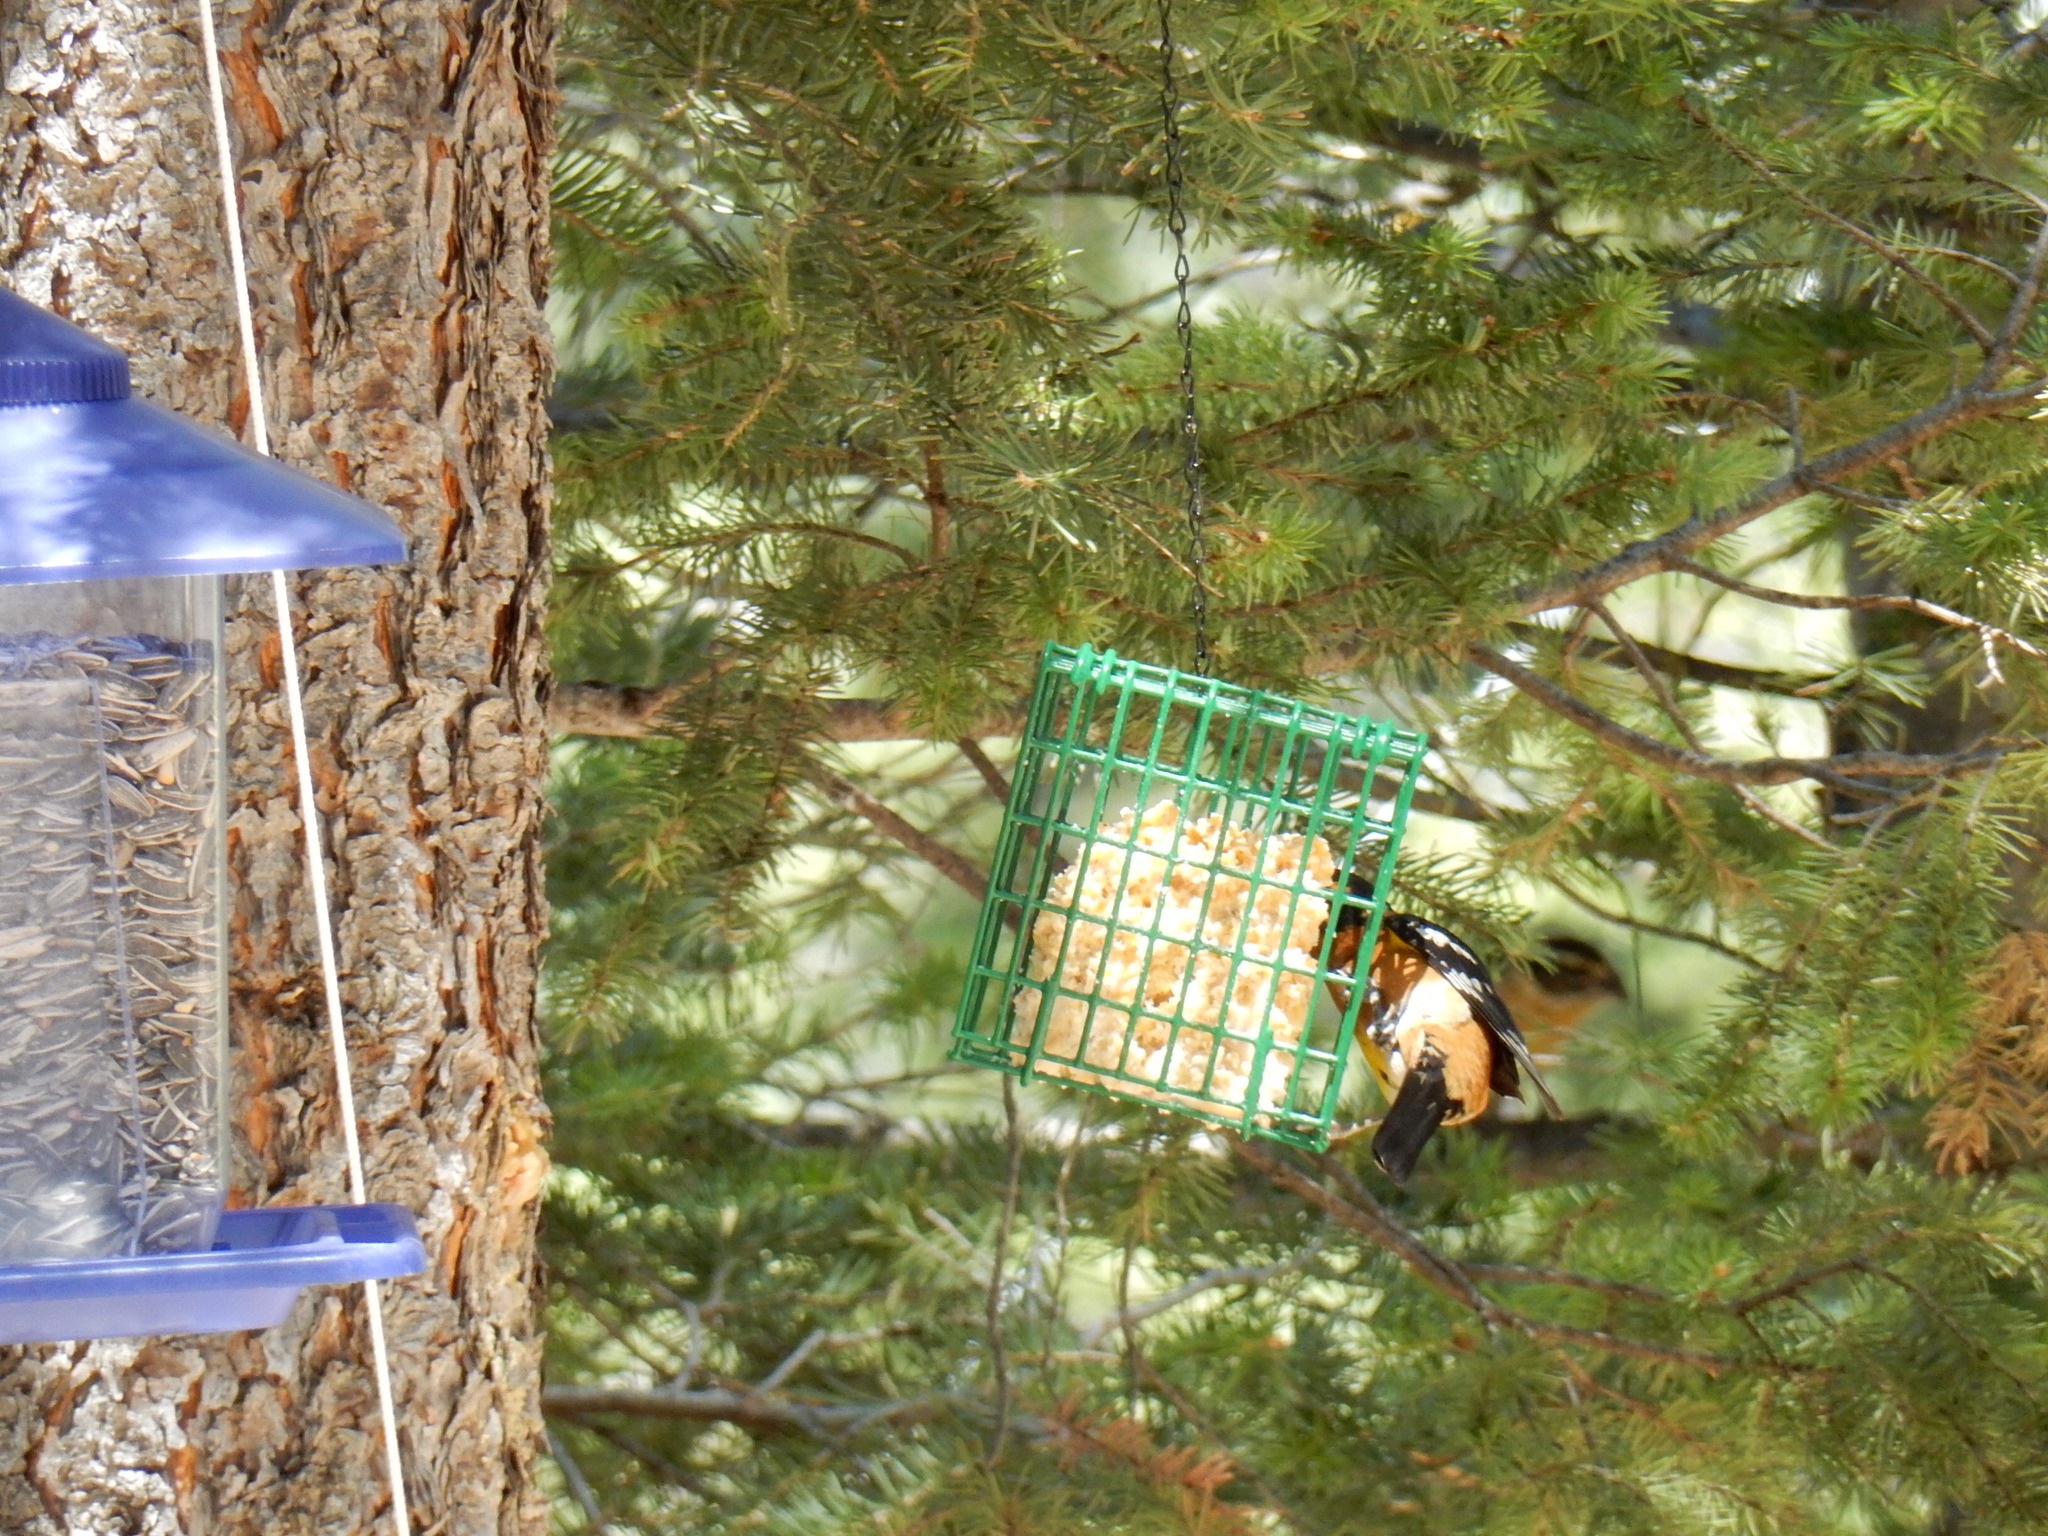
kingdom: Animalia
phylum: Chordata
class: Aves
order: Passeriformes
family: Cardinalidae
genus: Pheucticus
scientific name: Pheucticus melanocephalus
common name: Black-headed grosbeak
